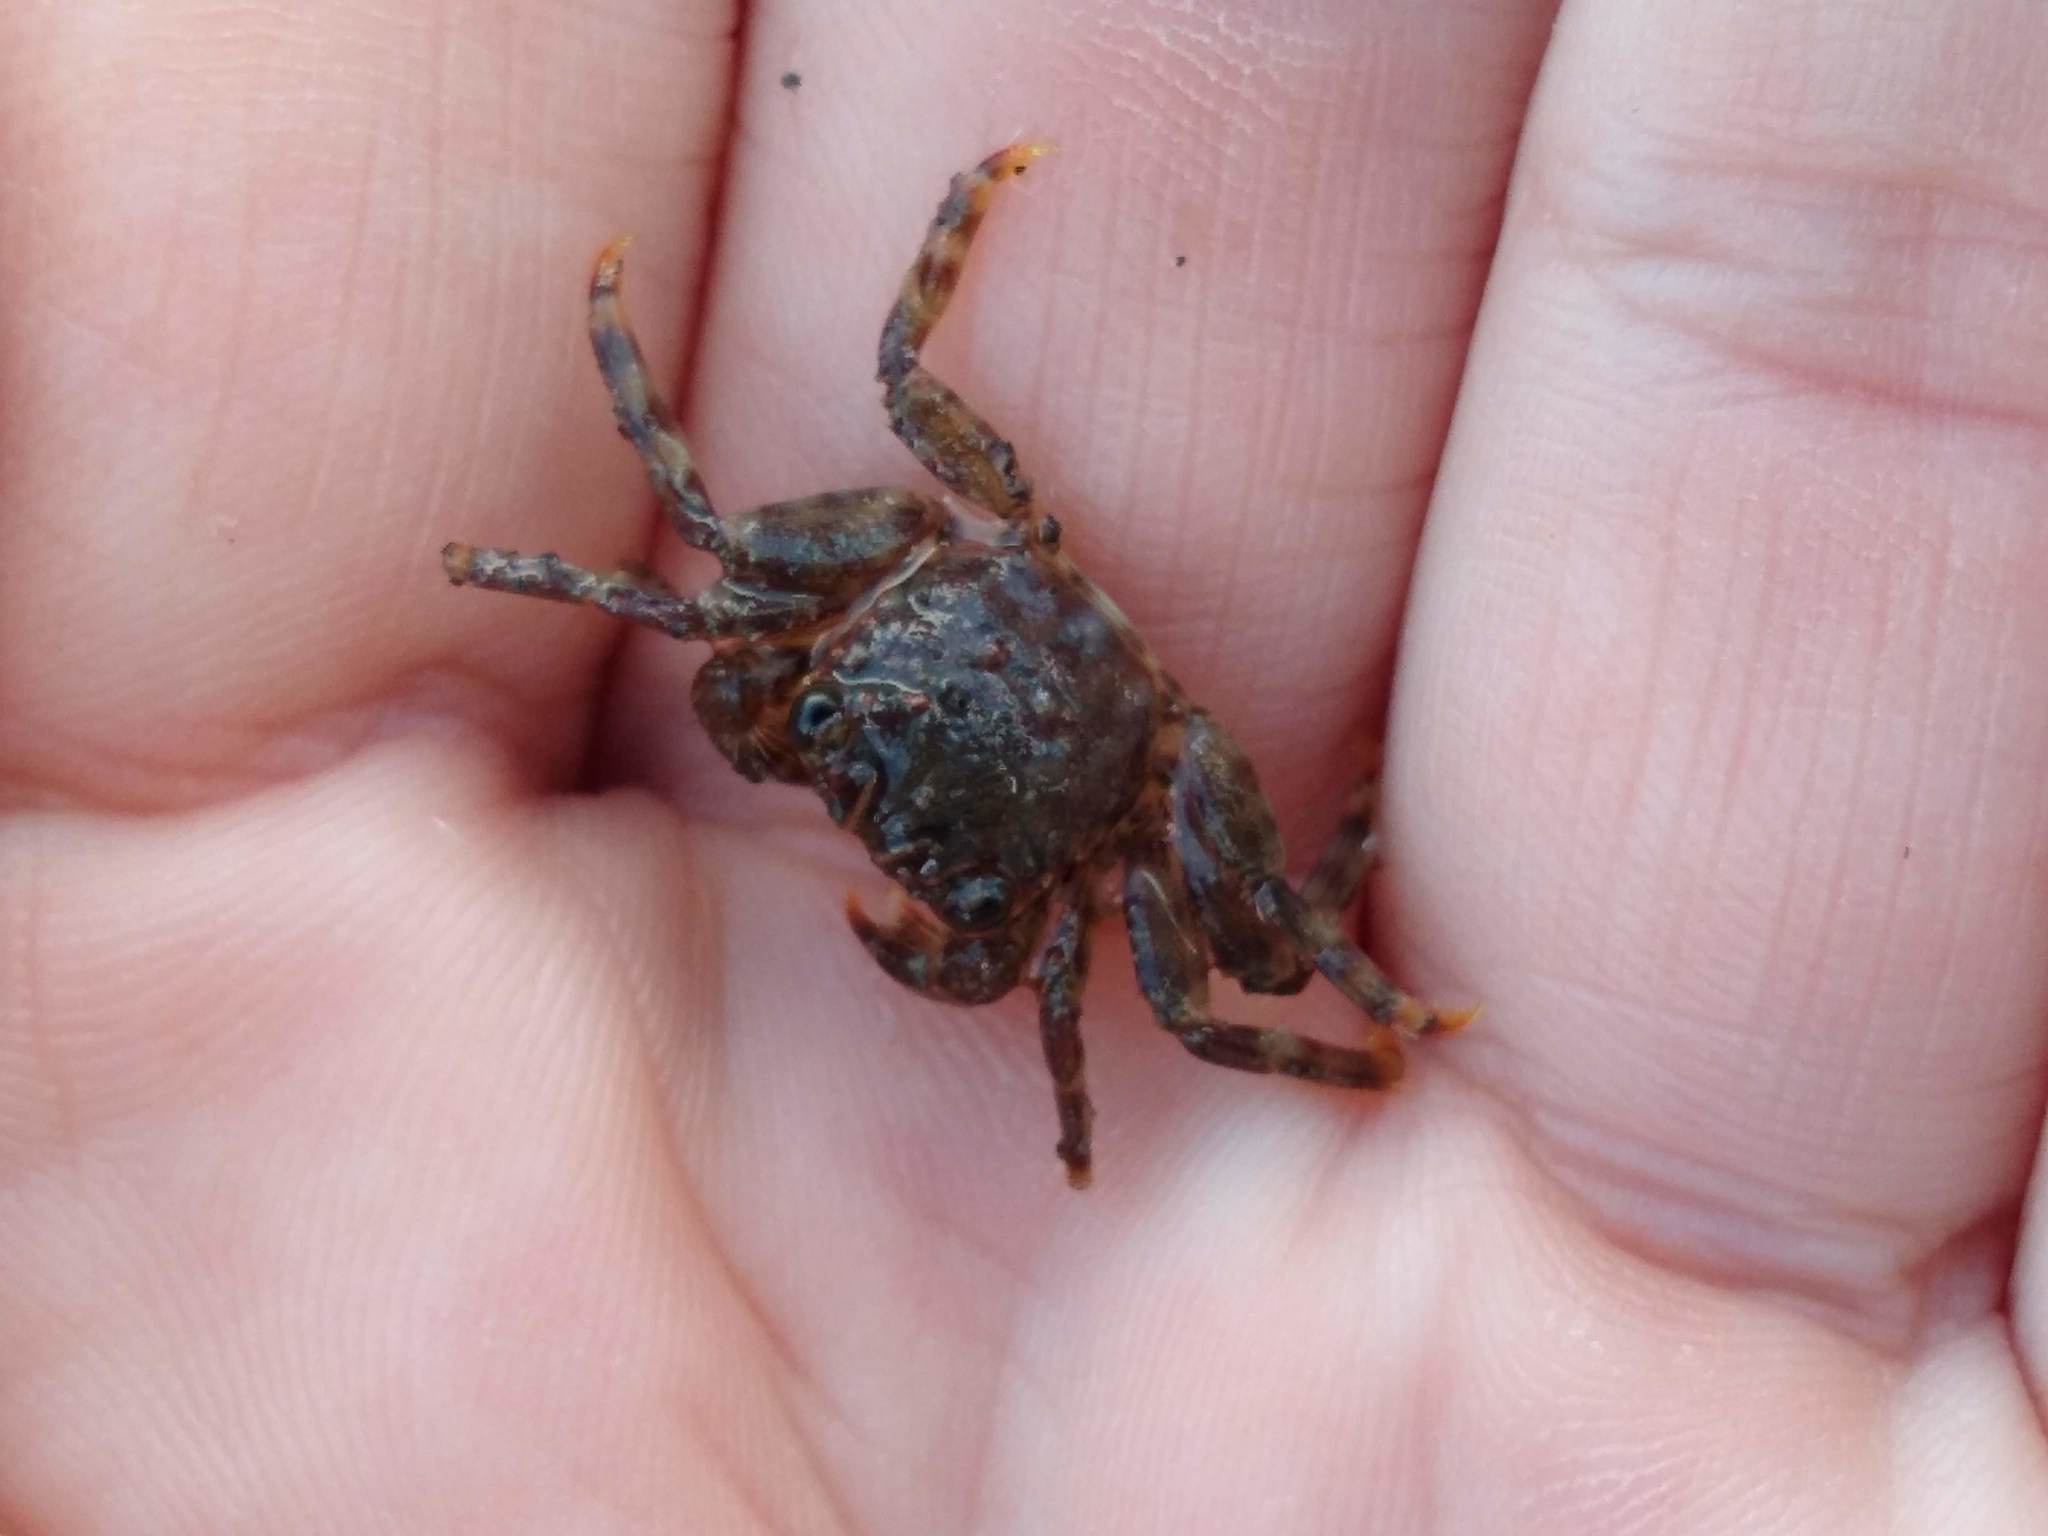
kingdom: Animalia
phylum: Arthropoda
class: Malacostraca
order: Decapoda
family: Plagusiidae
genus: Guinusia
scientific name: Guinusia chabrus
